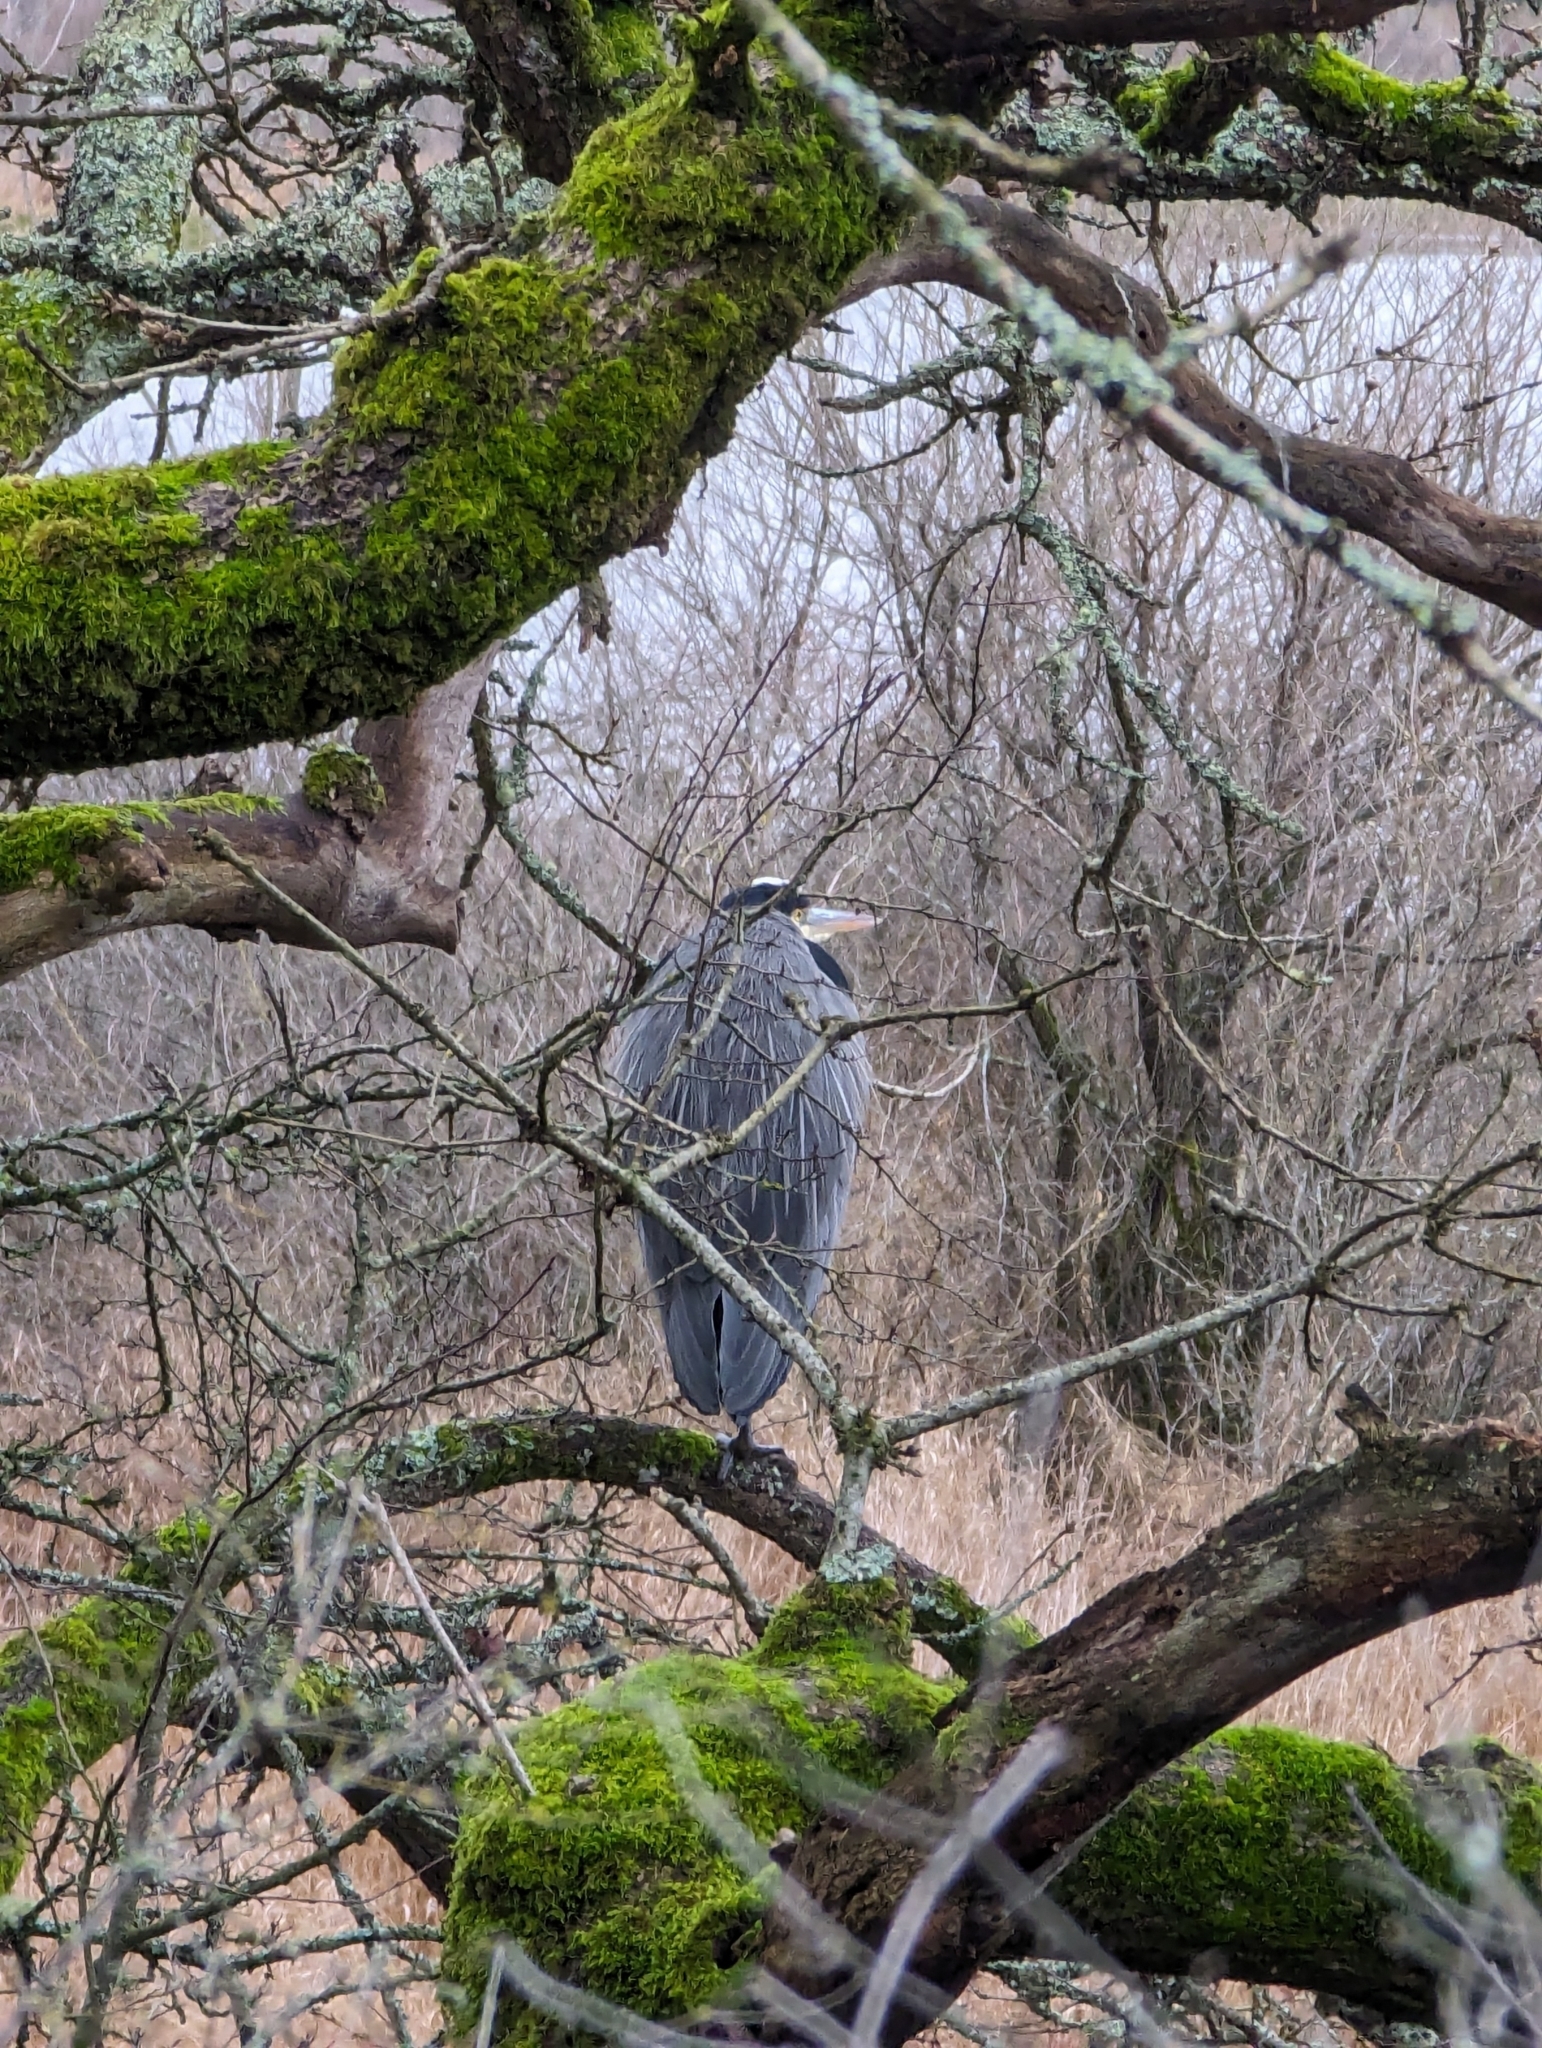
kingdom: Animalia
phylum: Chordata
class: Aves
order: Pelecaniformes
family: Ardeidae
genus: Ardea
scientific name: Ardea herodias
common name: Great blue heron
